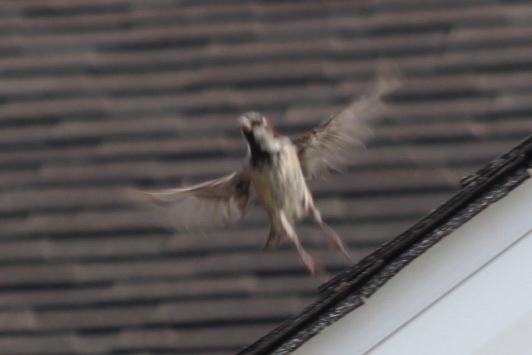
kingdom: Animalia
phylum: Chordata
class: Aves
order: Passeriformes
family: Passeridae
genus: Passer
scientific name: Passer domesticus
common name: House sparrow
